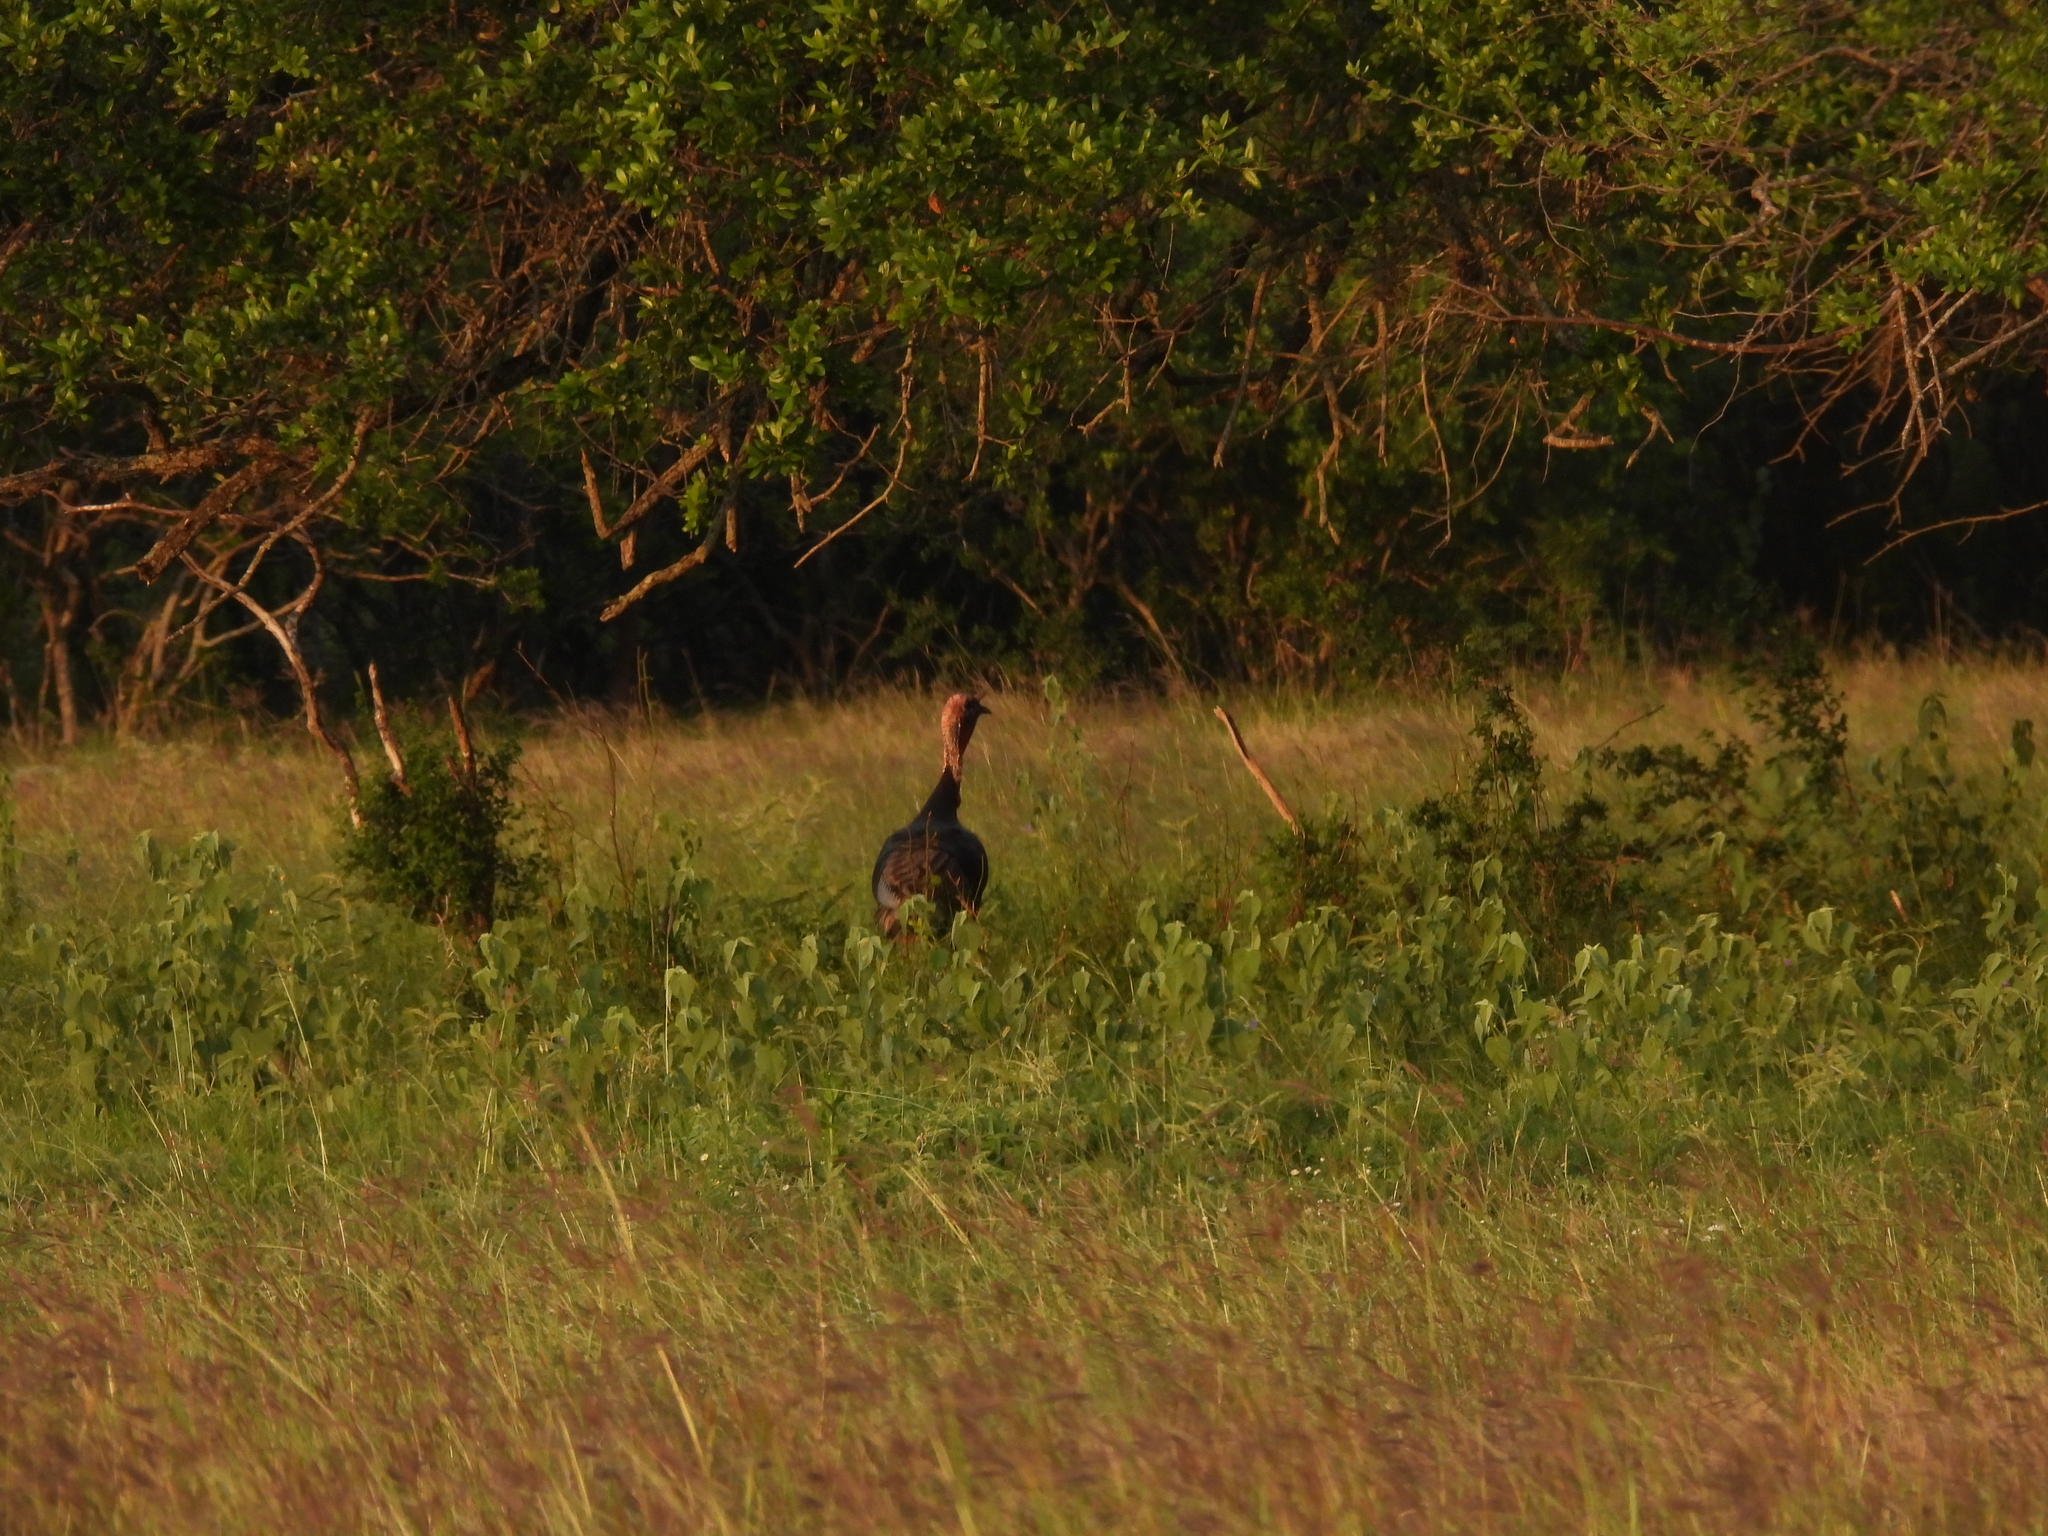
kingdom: Animalia
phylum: Chordata
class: Aves
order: Galliformes
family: Phasianidae
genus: Meleagris
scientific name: Meleagris gallopavo
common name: Wild turkey
